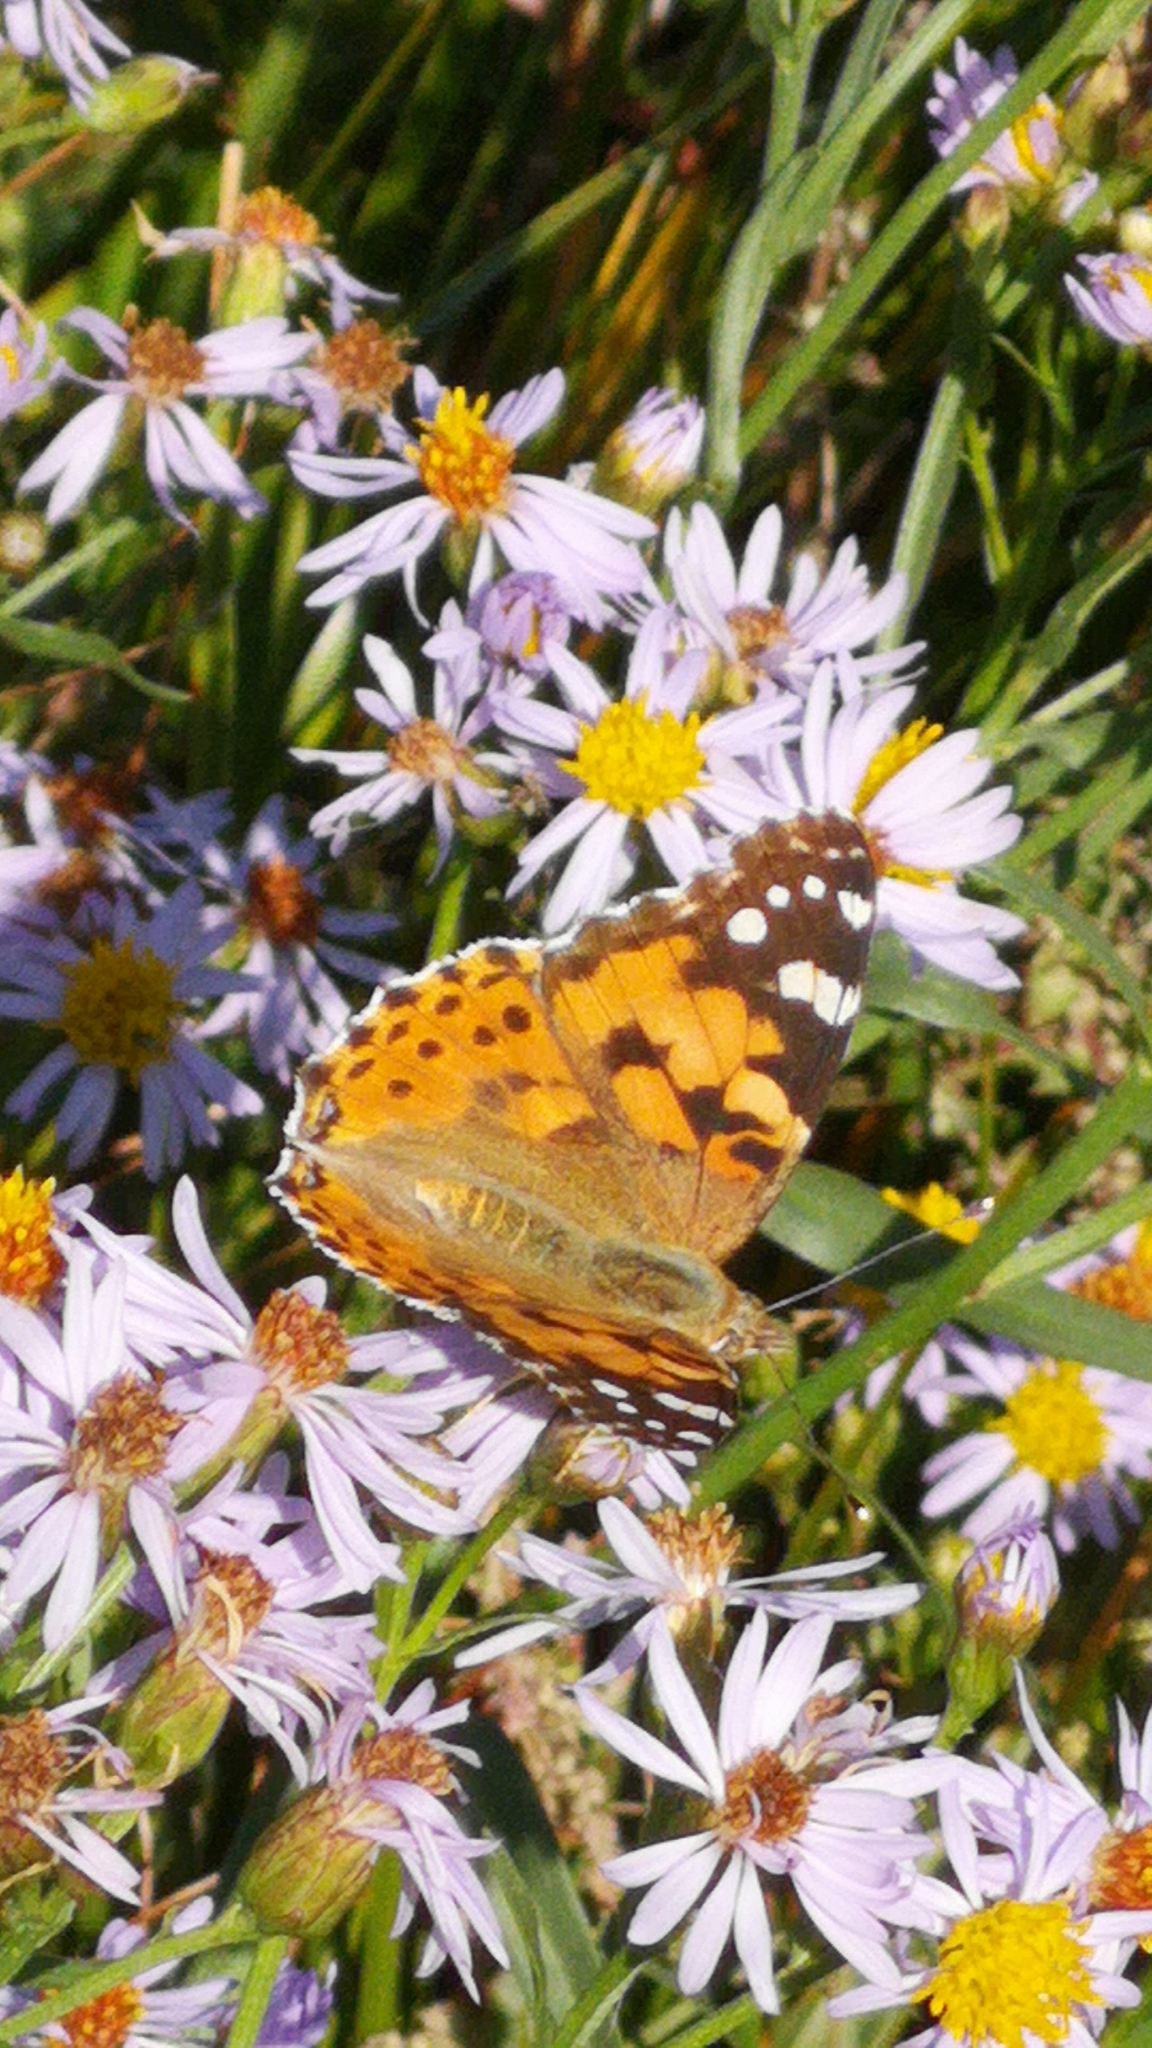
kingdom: Animalia
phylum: Arthropoda
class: Insecta
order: Lepidoptera
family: Nymphalidae
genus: Vanessa
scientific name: Vanessa cardui
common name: Painted lady
